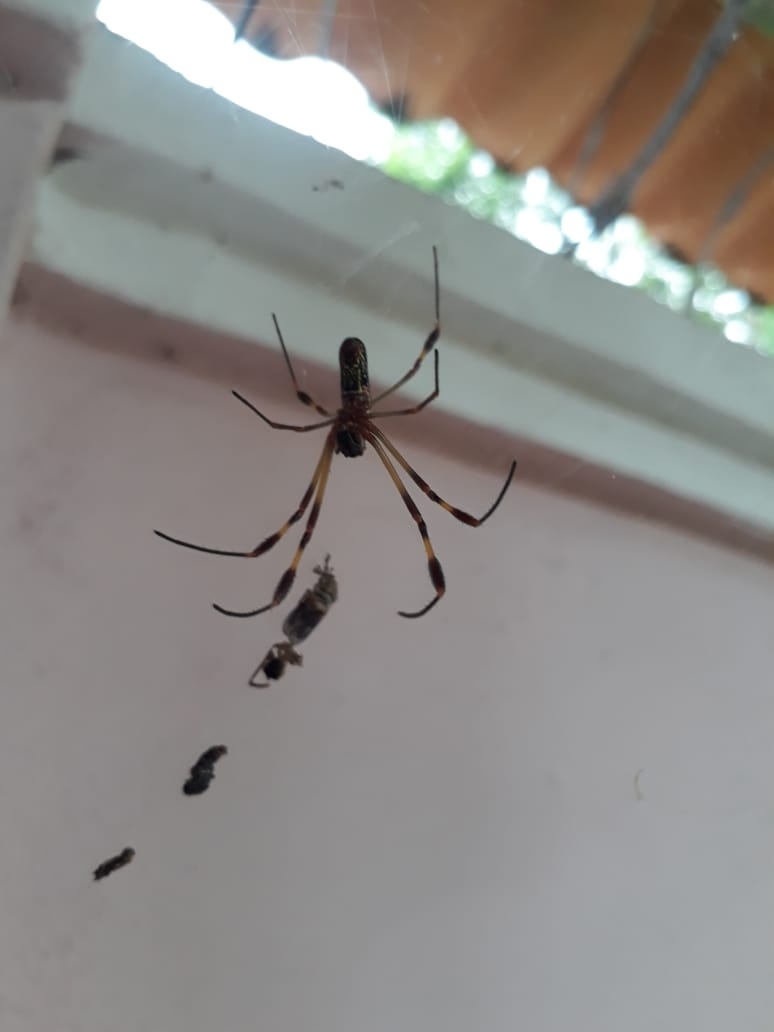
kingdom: Animalia
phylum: Arthropoda
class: Arachnida
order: Araneae
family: Araneidae
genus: Trichonephila
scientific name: Trichonephila clavipes
